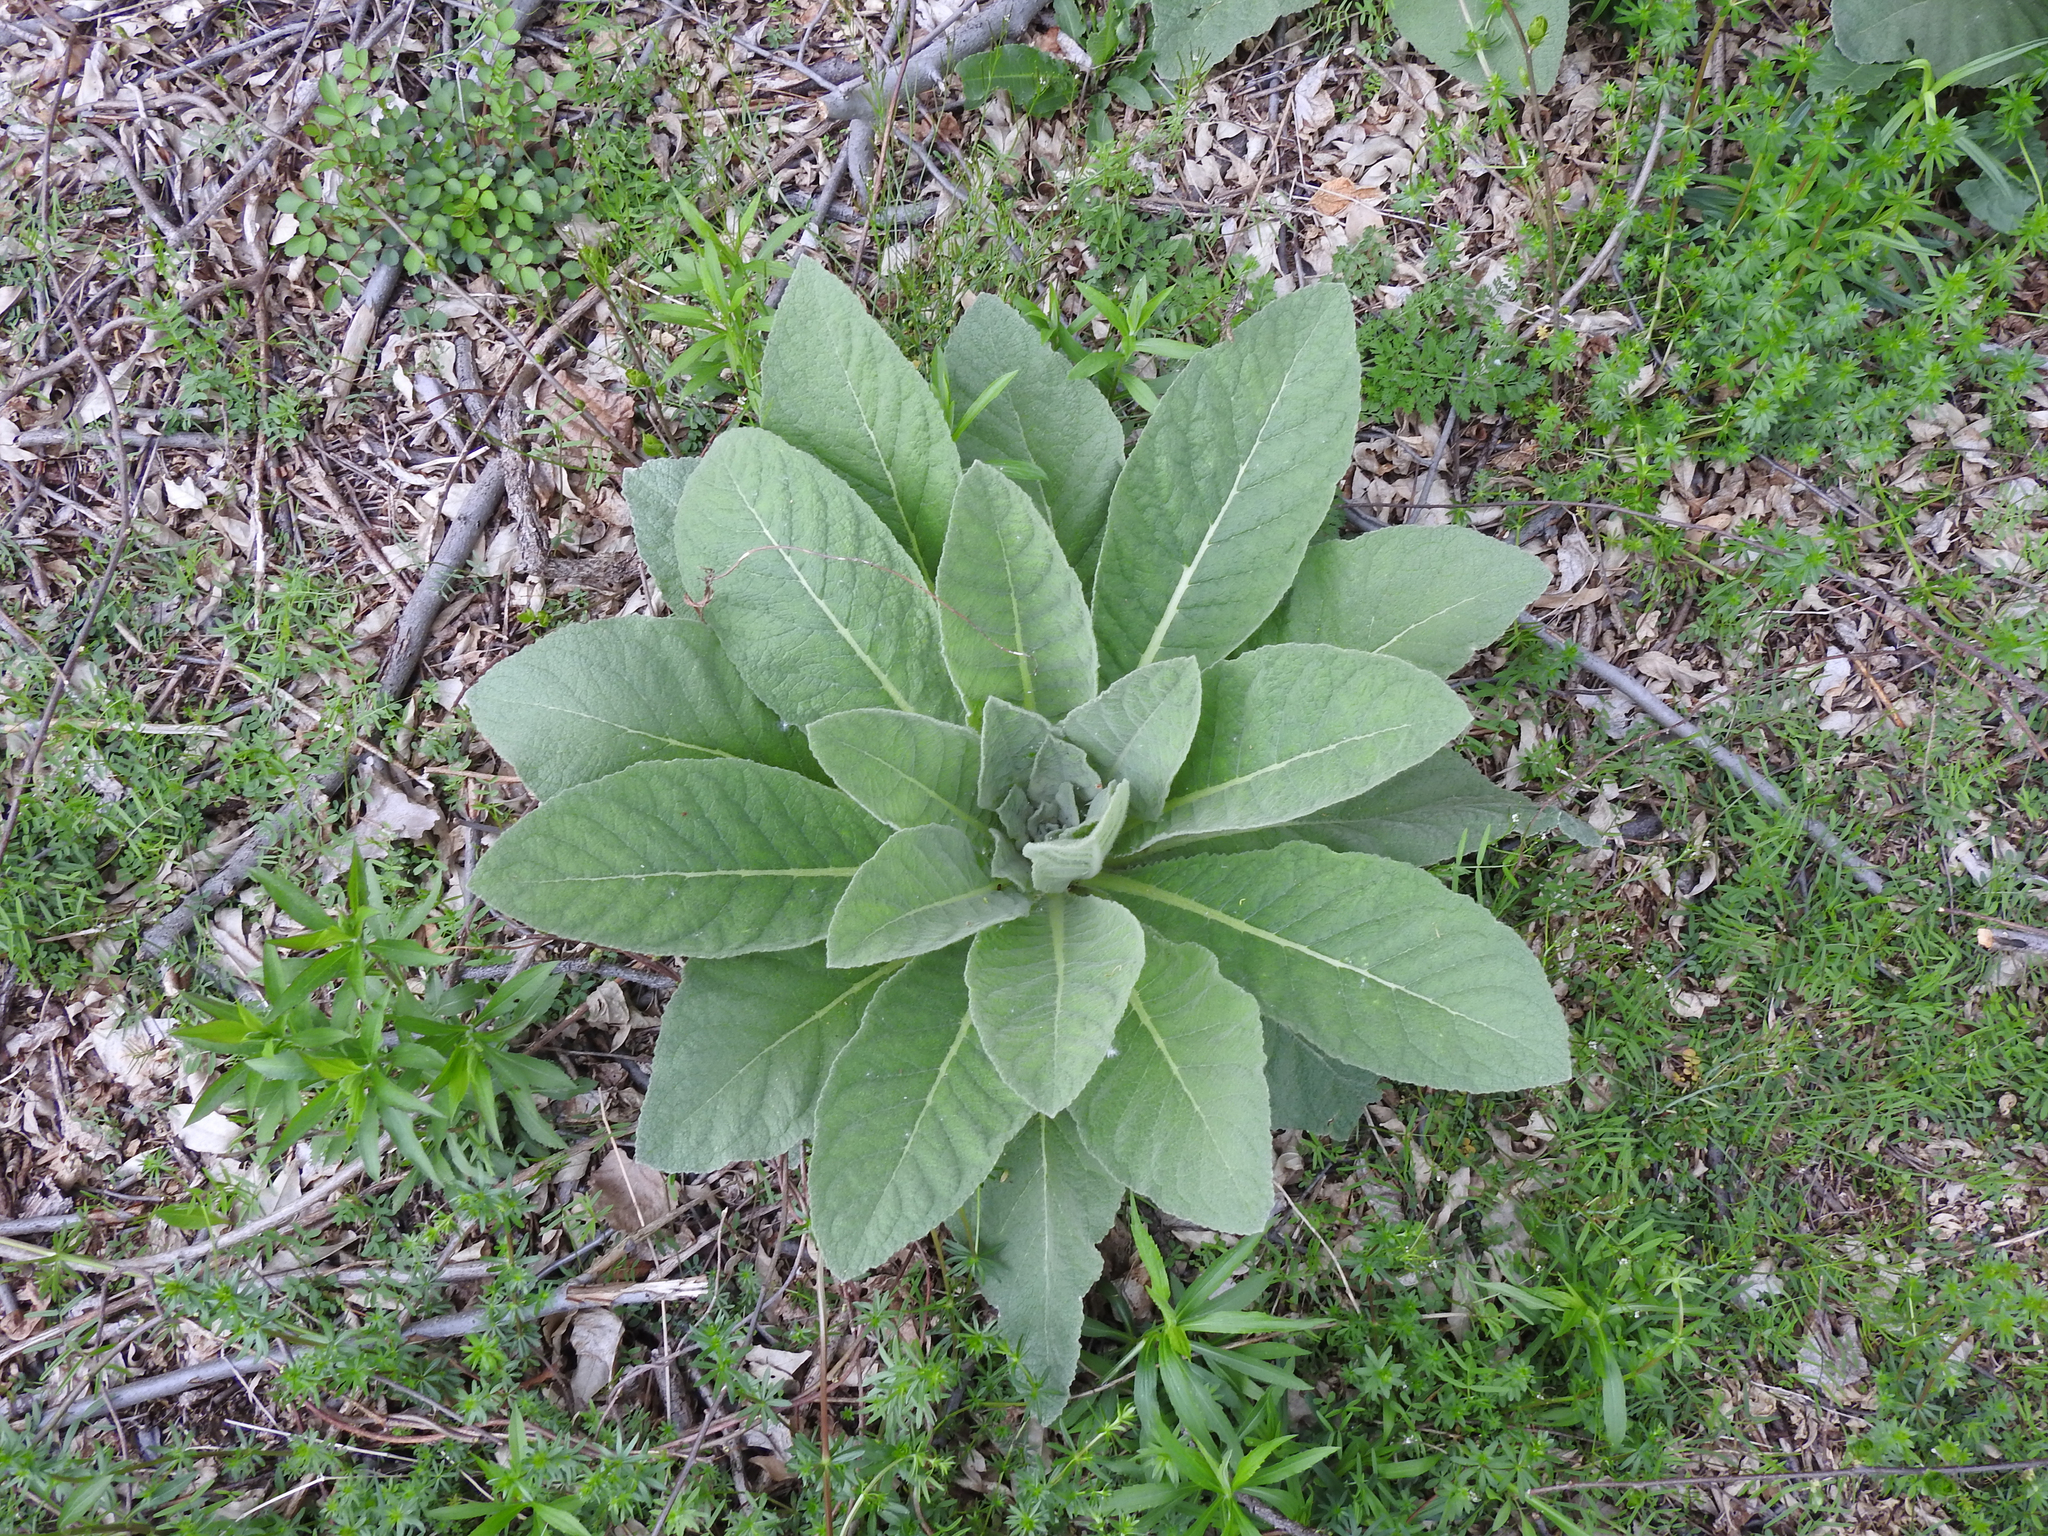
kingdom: Plantae
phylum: Tracheophyta
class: Magnoliopsida
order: Lamiales
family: Scrophulariaceae
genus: Verbascum
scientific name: Verbascum thapsus
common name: Common mullein
